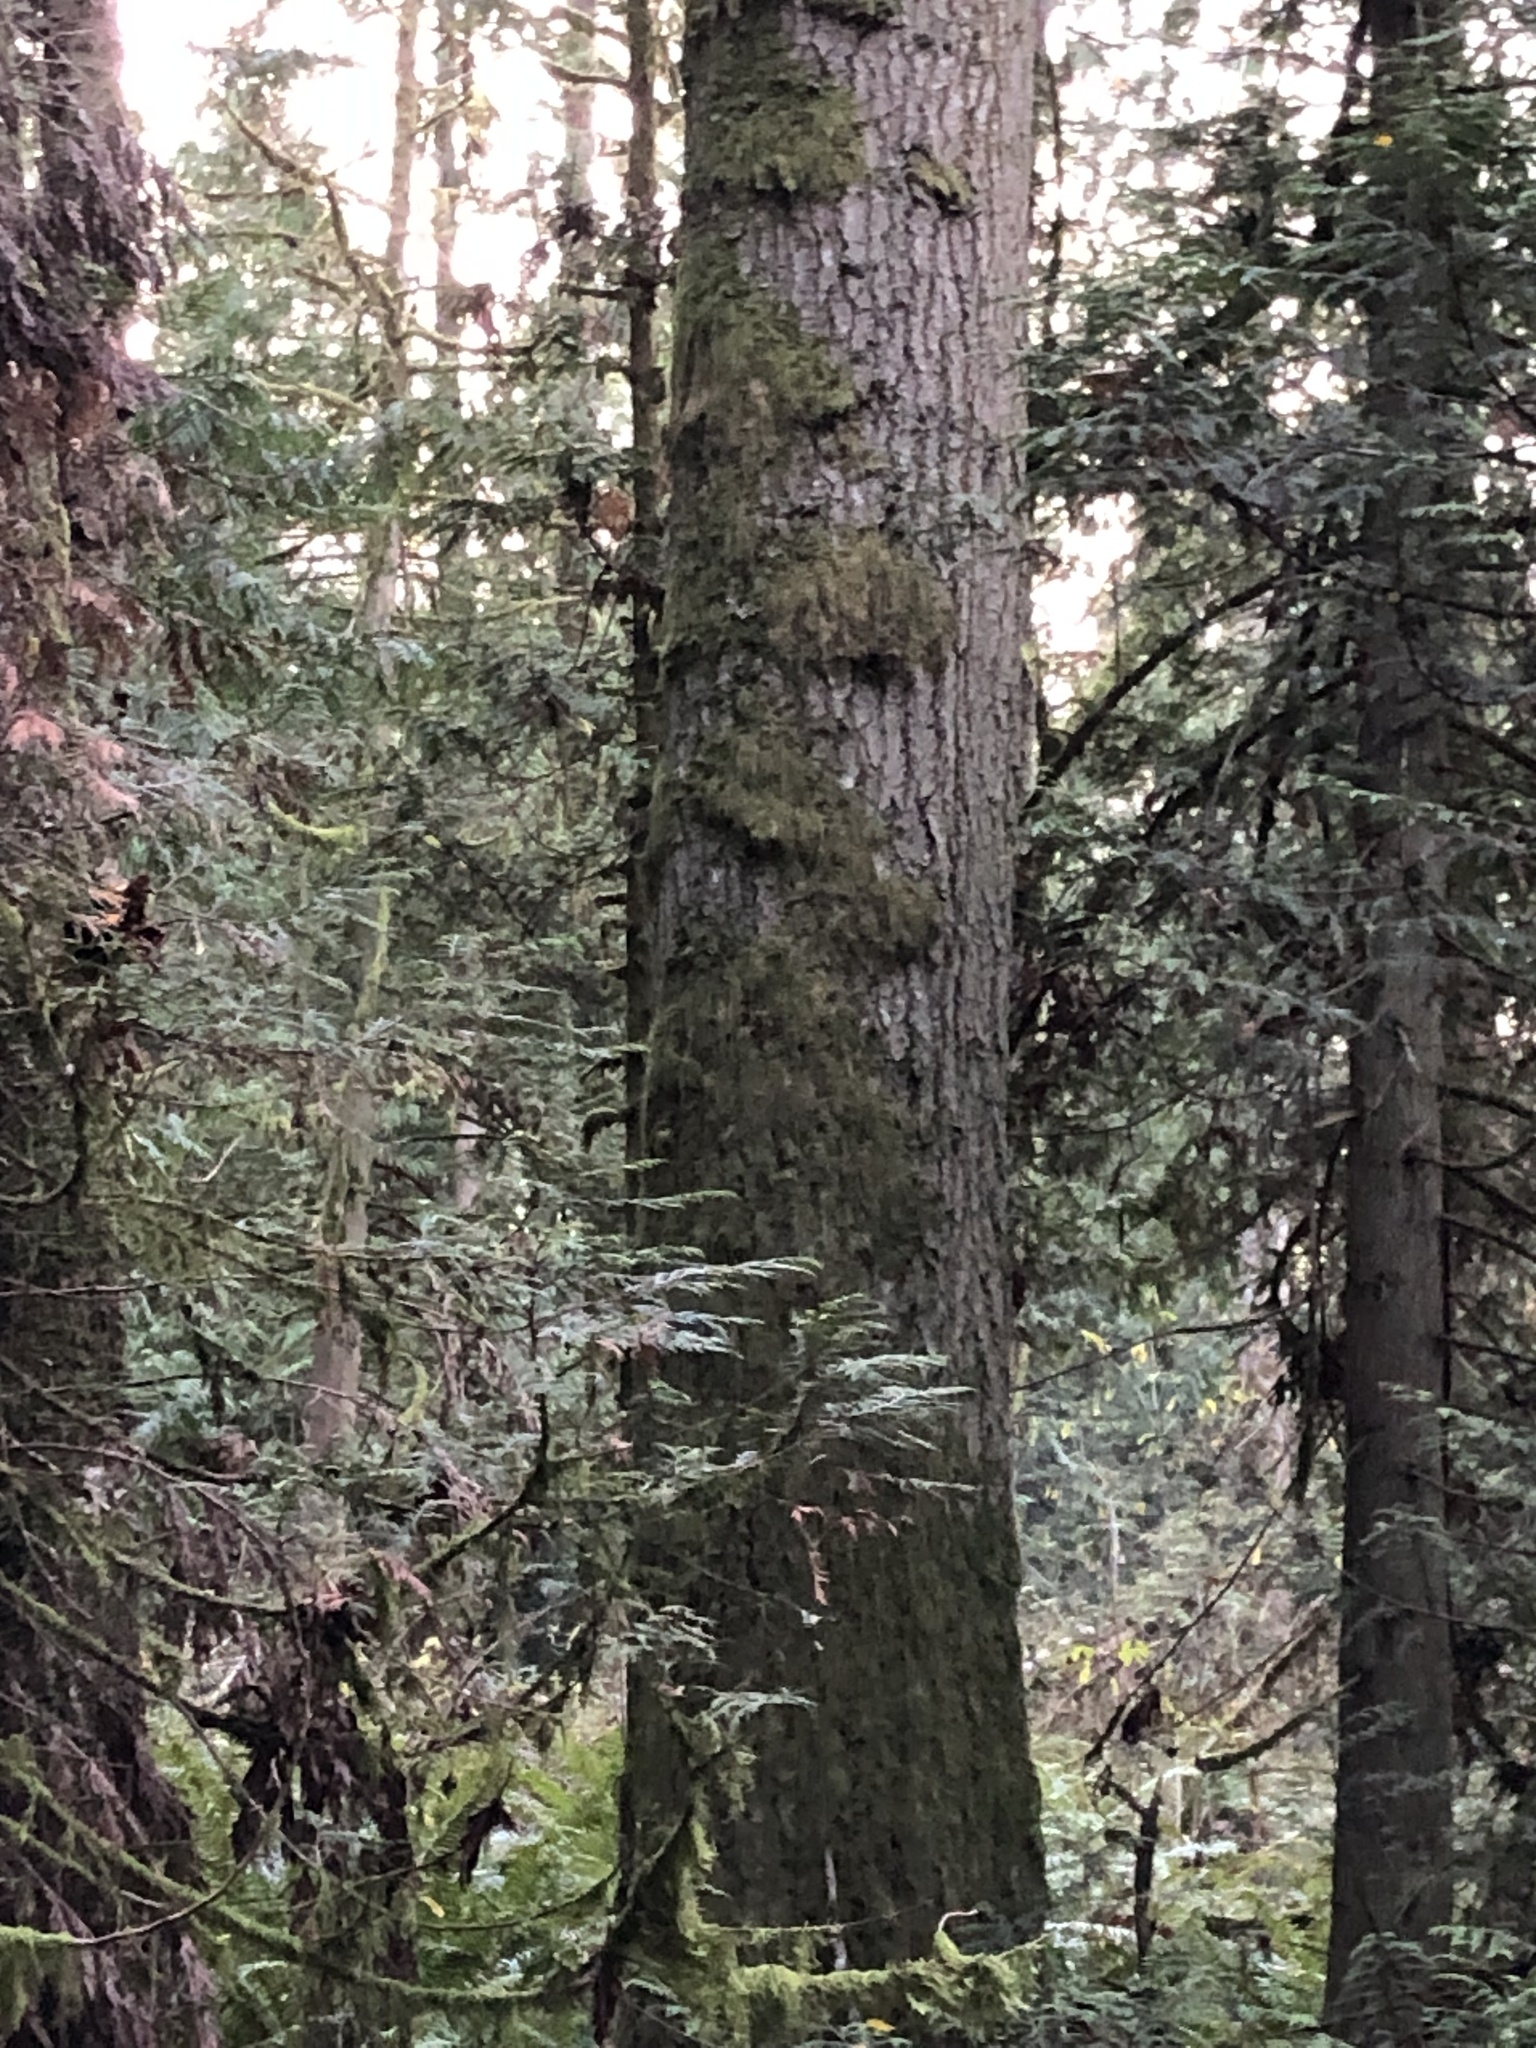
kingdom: Plantae
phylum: Tracheophyta
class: Pinopsida
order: Pinales
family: Pinaceae
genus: Abies
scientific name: Abies grandis
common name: Giant fir
